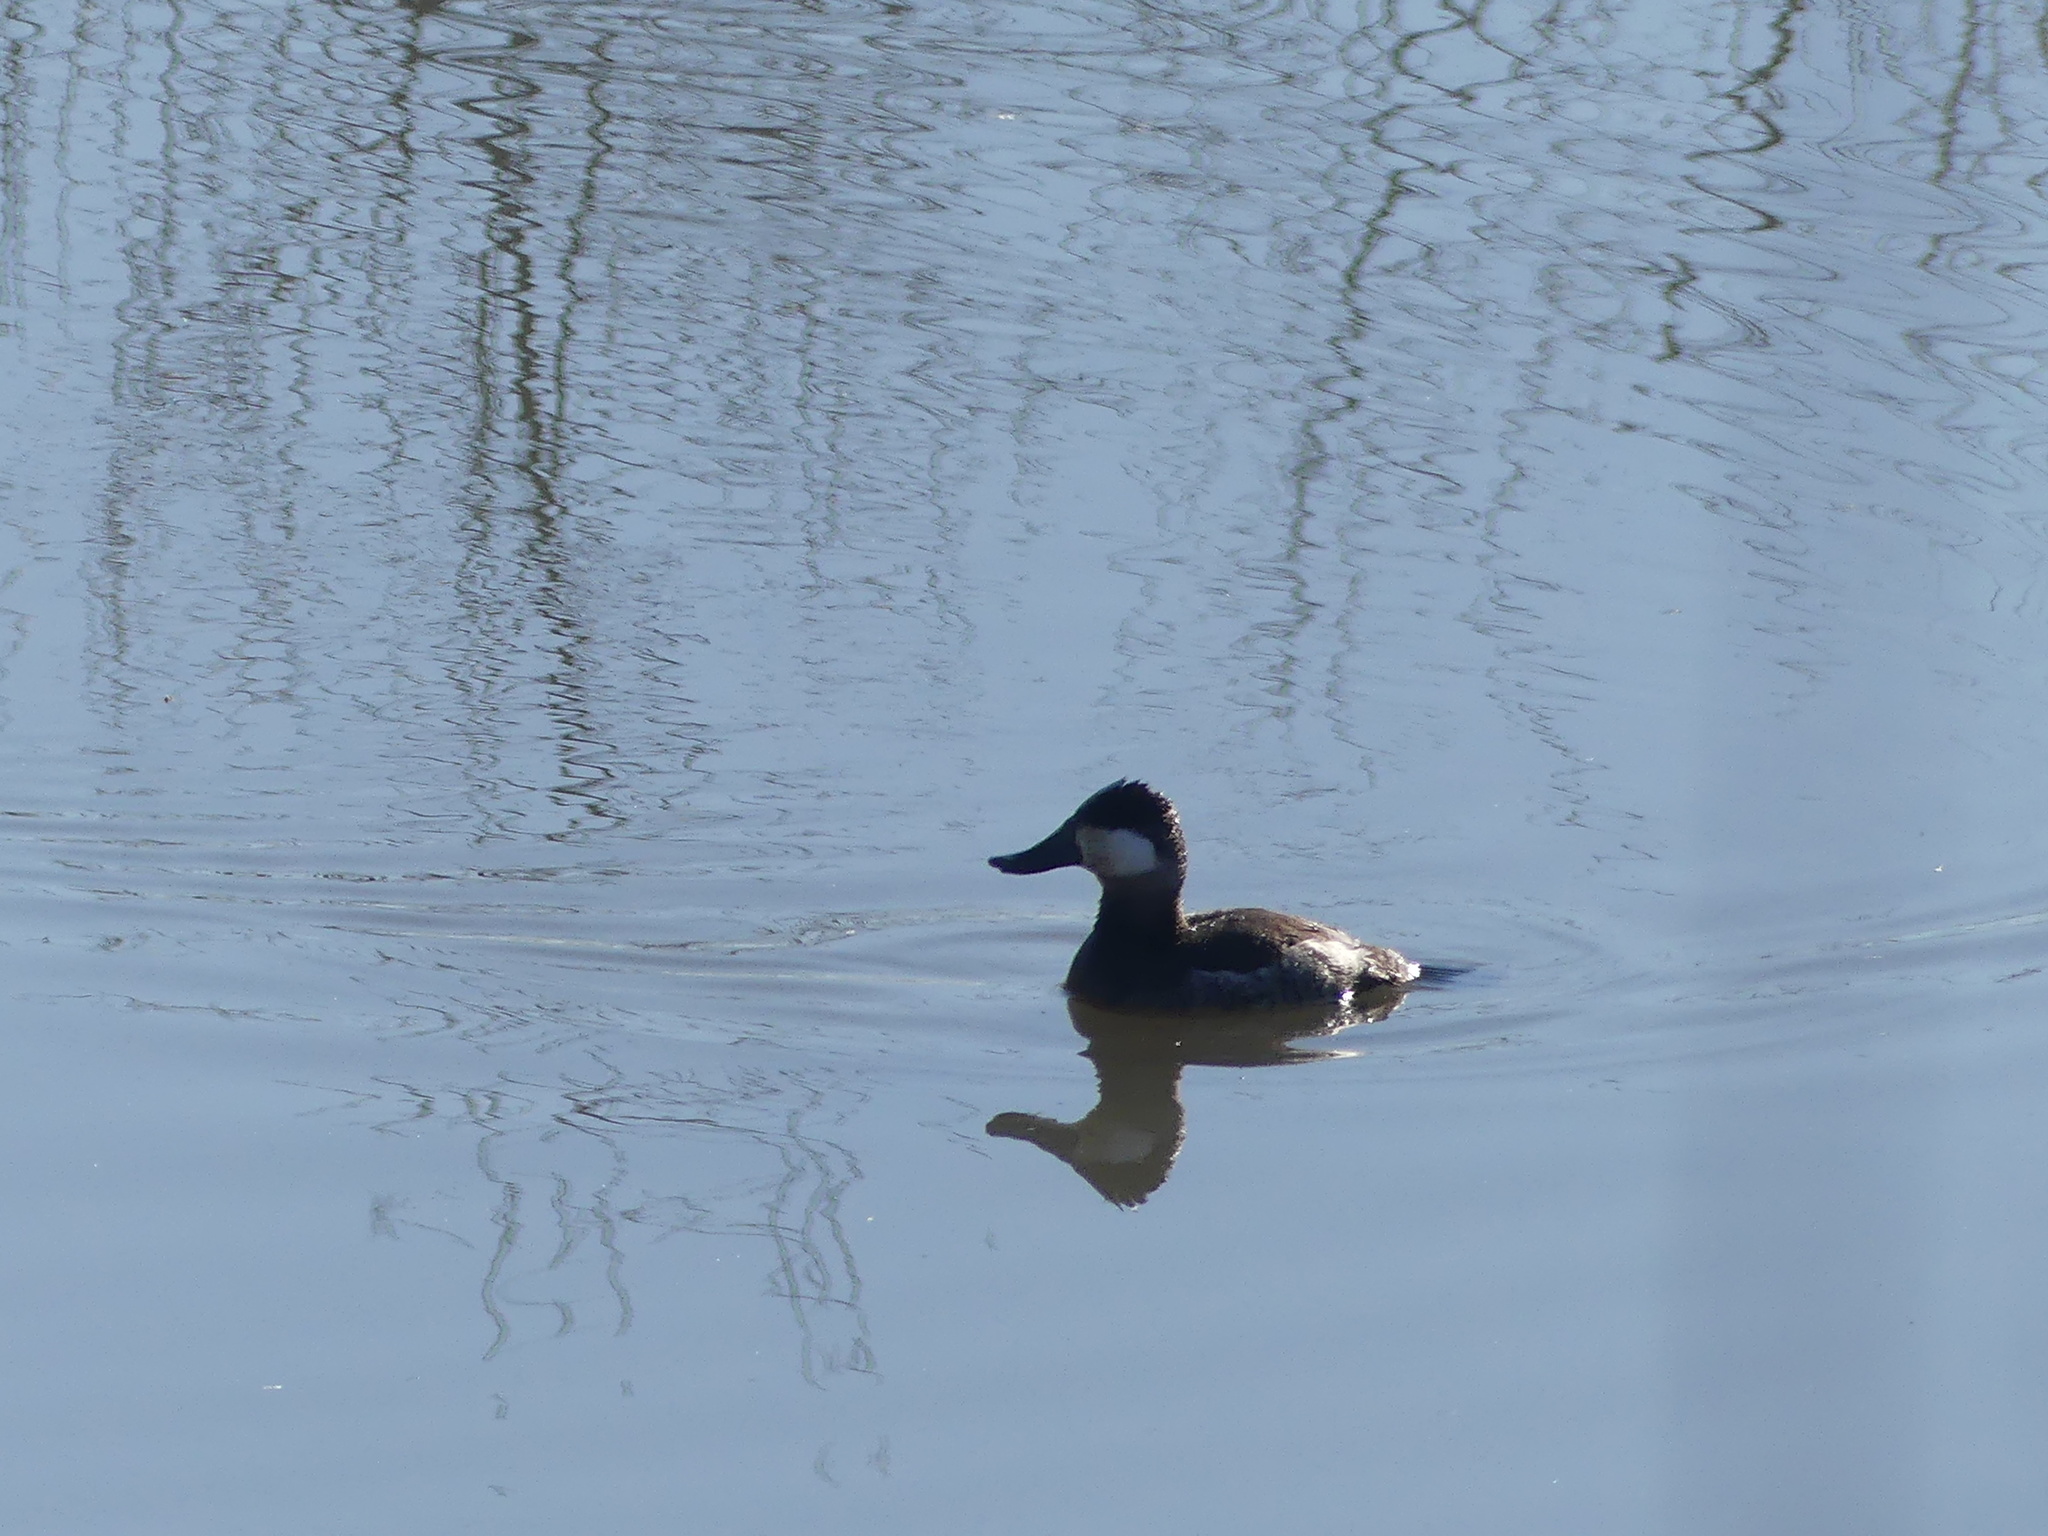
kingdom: Animalia
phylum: Chordata
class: Aves
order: Anseriformes
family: Anatidae
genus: Oxyura
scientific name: Oxyura jamaicensis
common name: Ruddy duck
